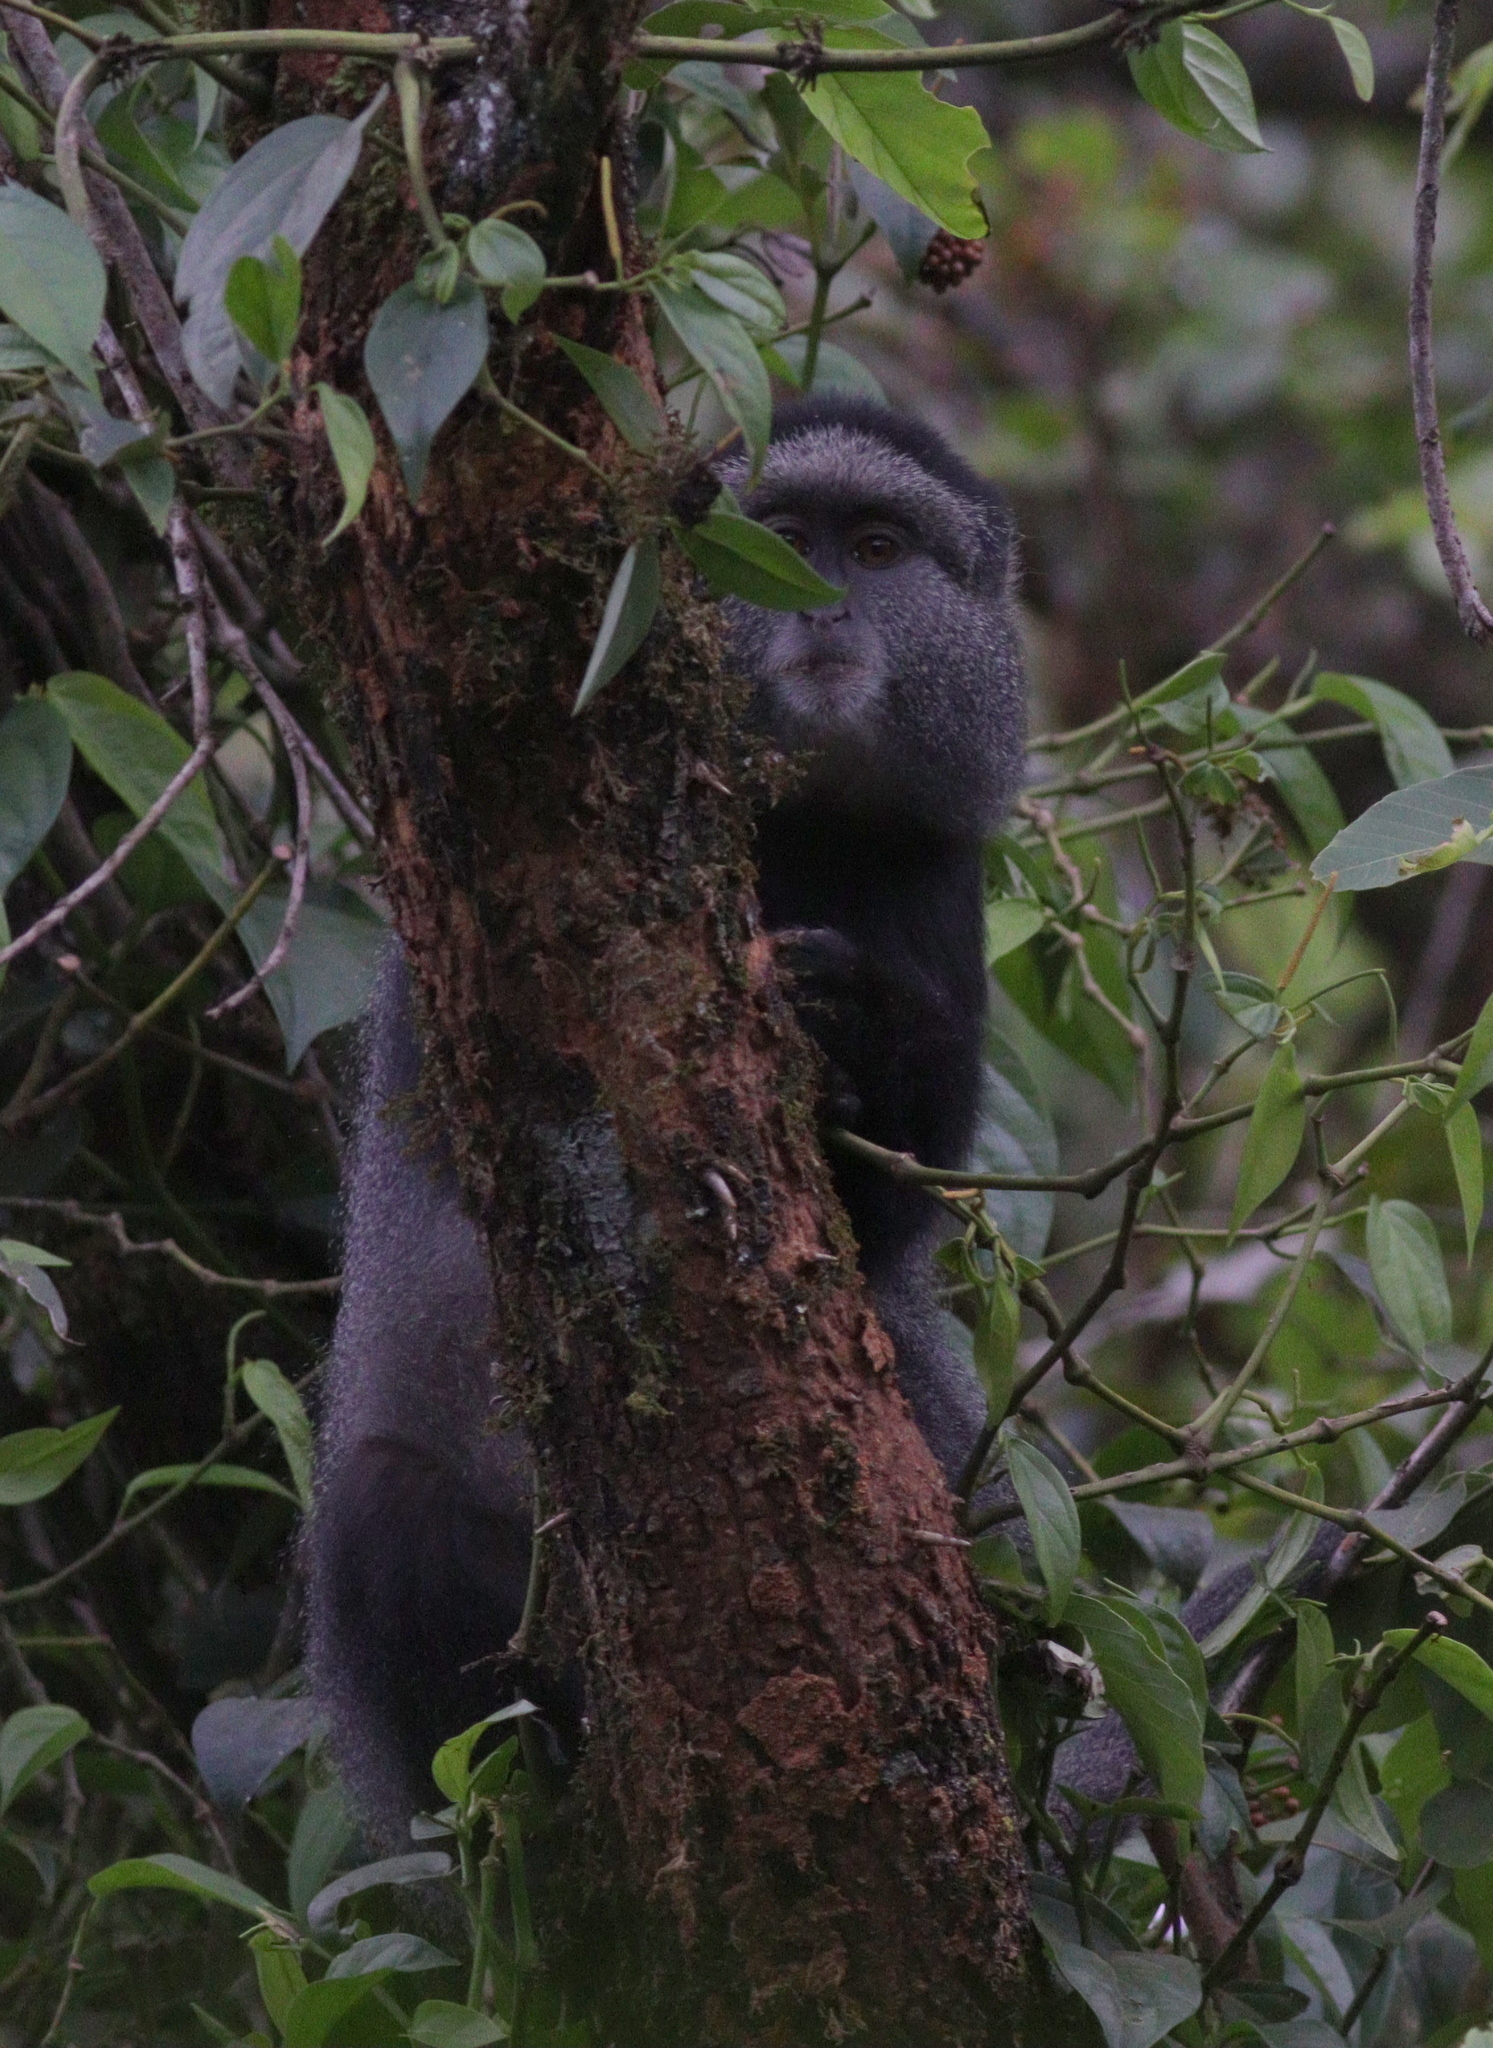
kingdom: Animalia
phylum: Chordata
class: Mammalia
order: Primates
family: Cercopithecidae
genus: Cercopithecus
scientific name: Cercopithecus mitis
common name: Blue monkey
